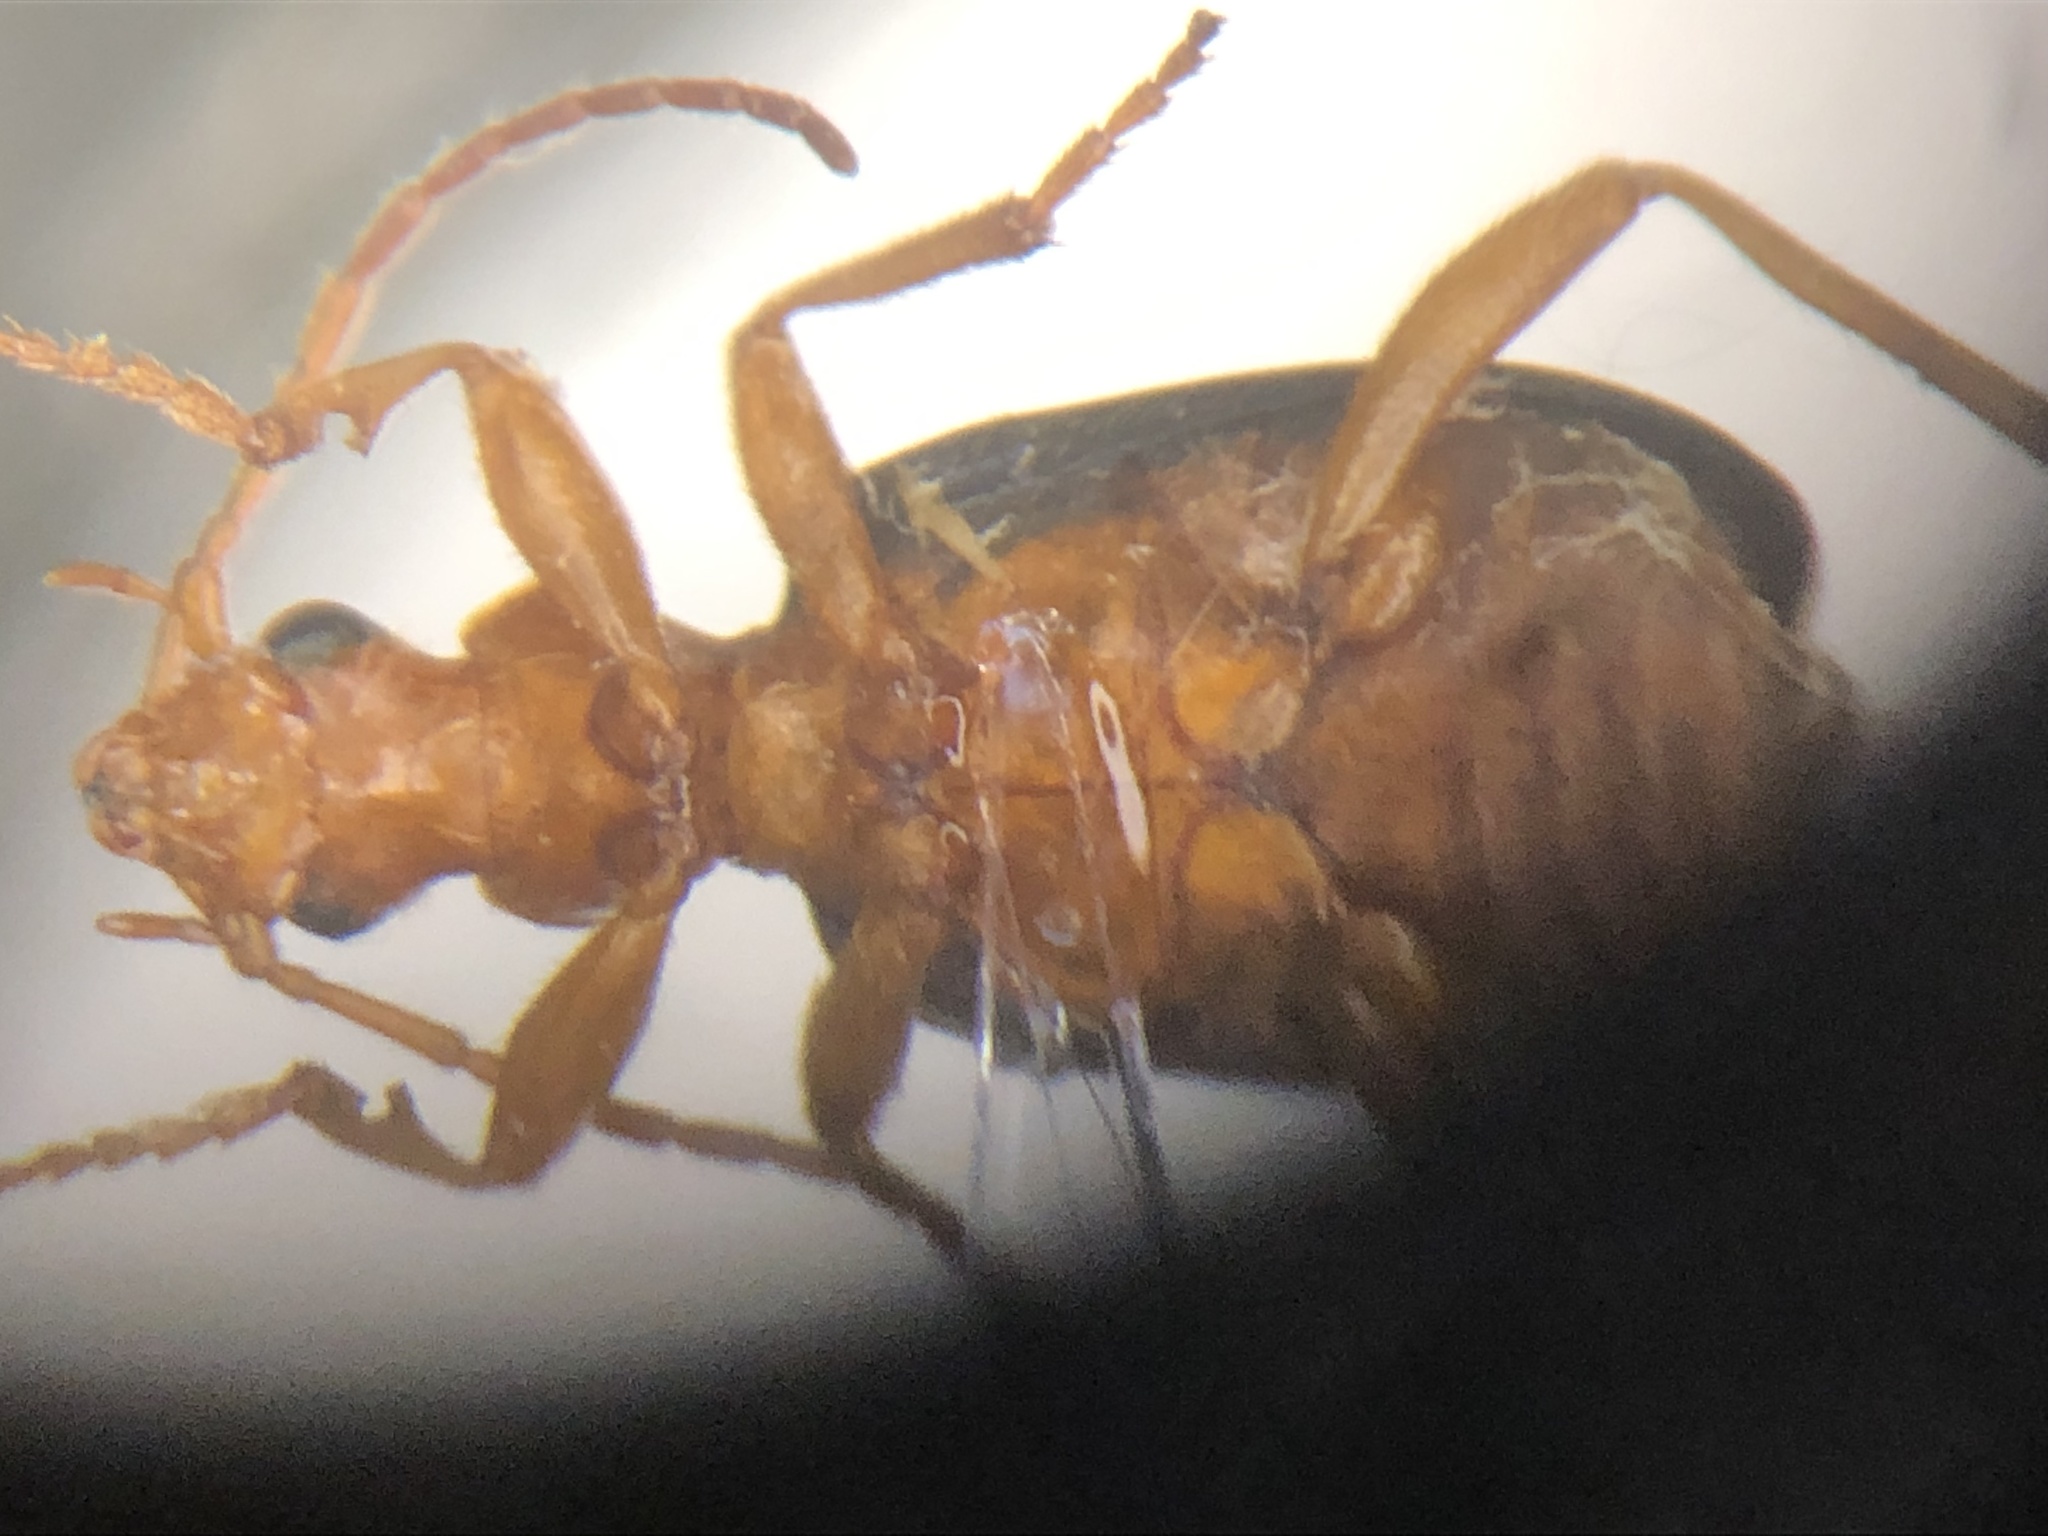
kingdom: Animalia
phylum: Arthropoda
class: Insecta
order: Coleoptera
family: Carabidae
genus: Brachinus
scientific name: Brachinus fumans
